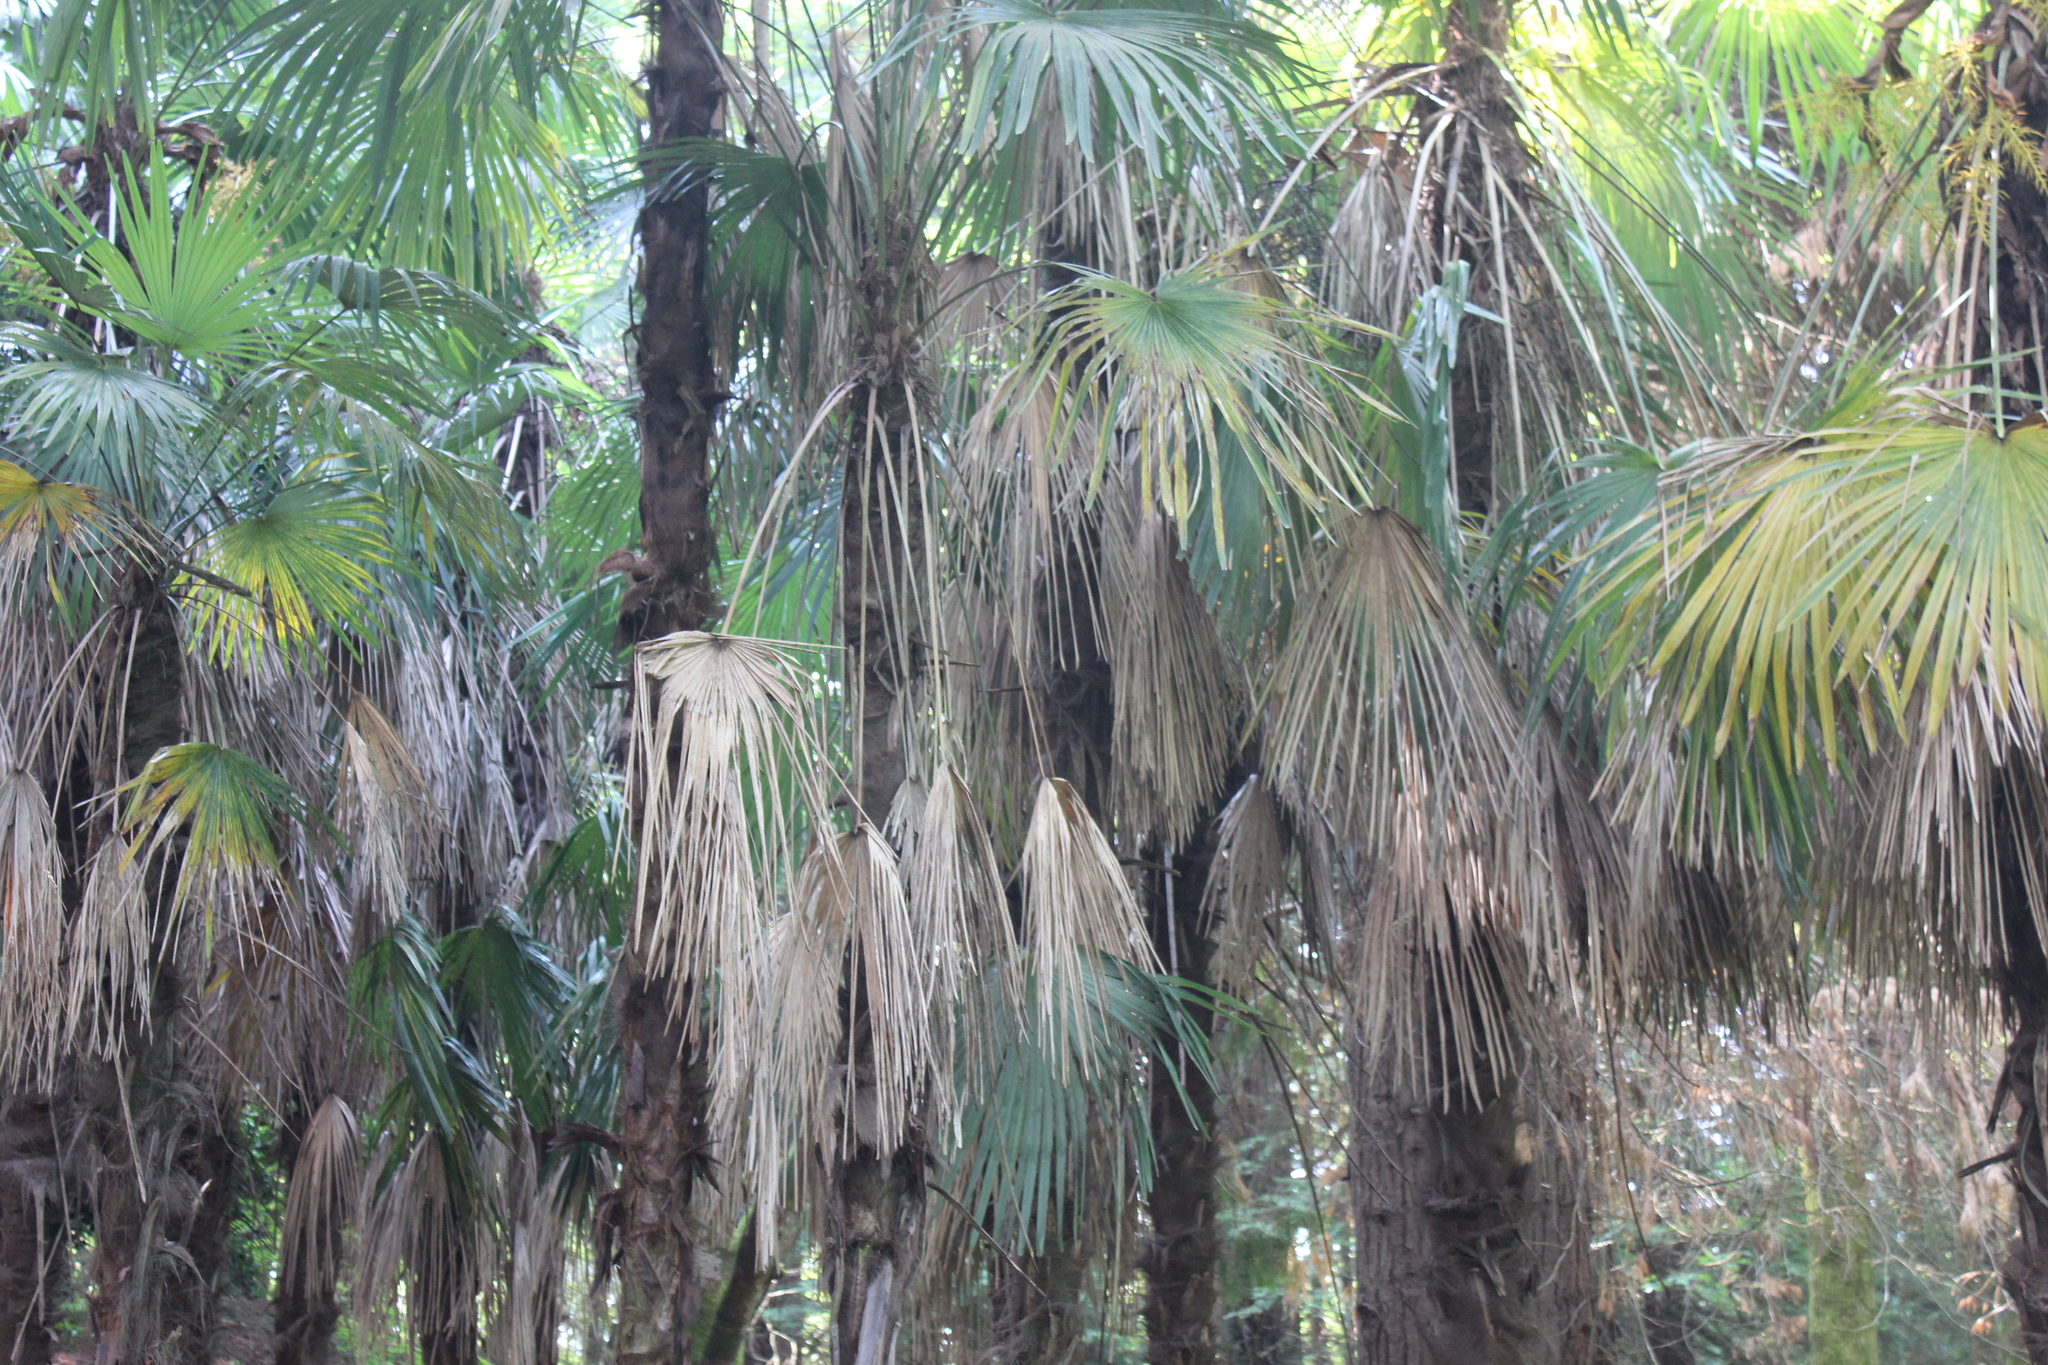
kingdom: Plantae
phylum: Tracheophyta
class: Liliopsida
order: Arecales
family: Arecaceae
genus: Trachycarpus
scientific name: Trachycarpus fortunei
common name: Chusan palm
